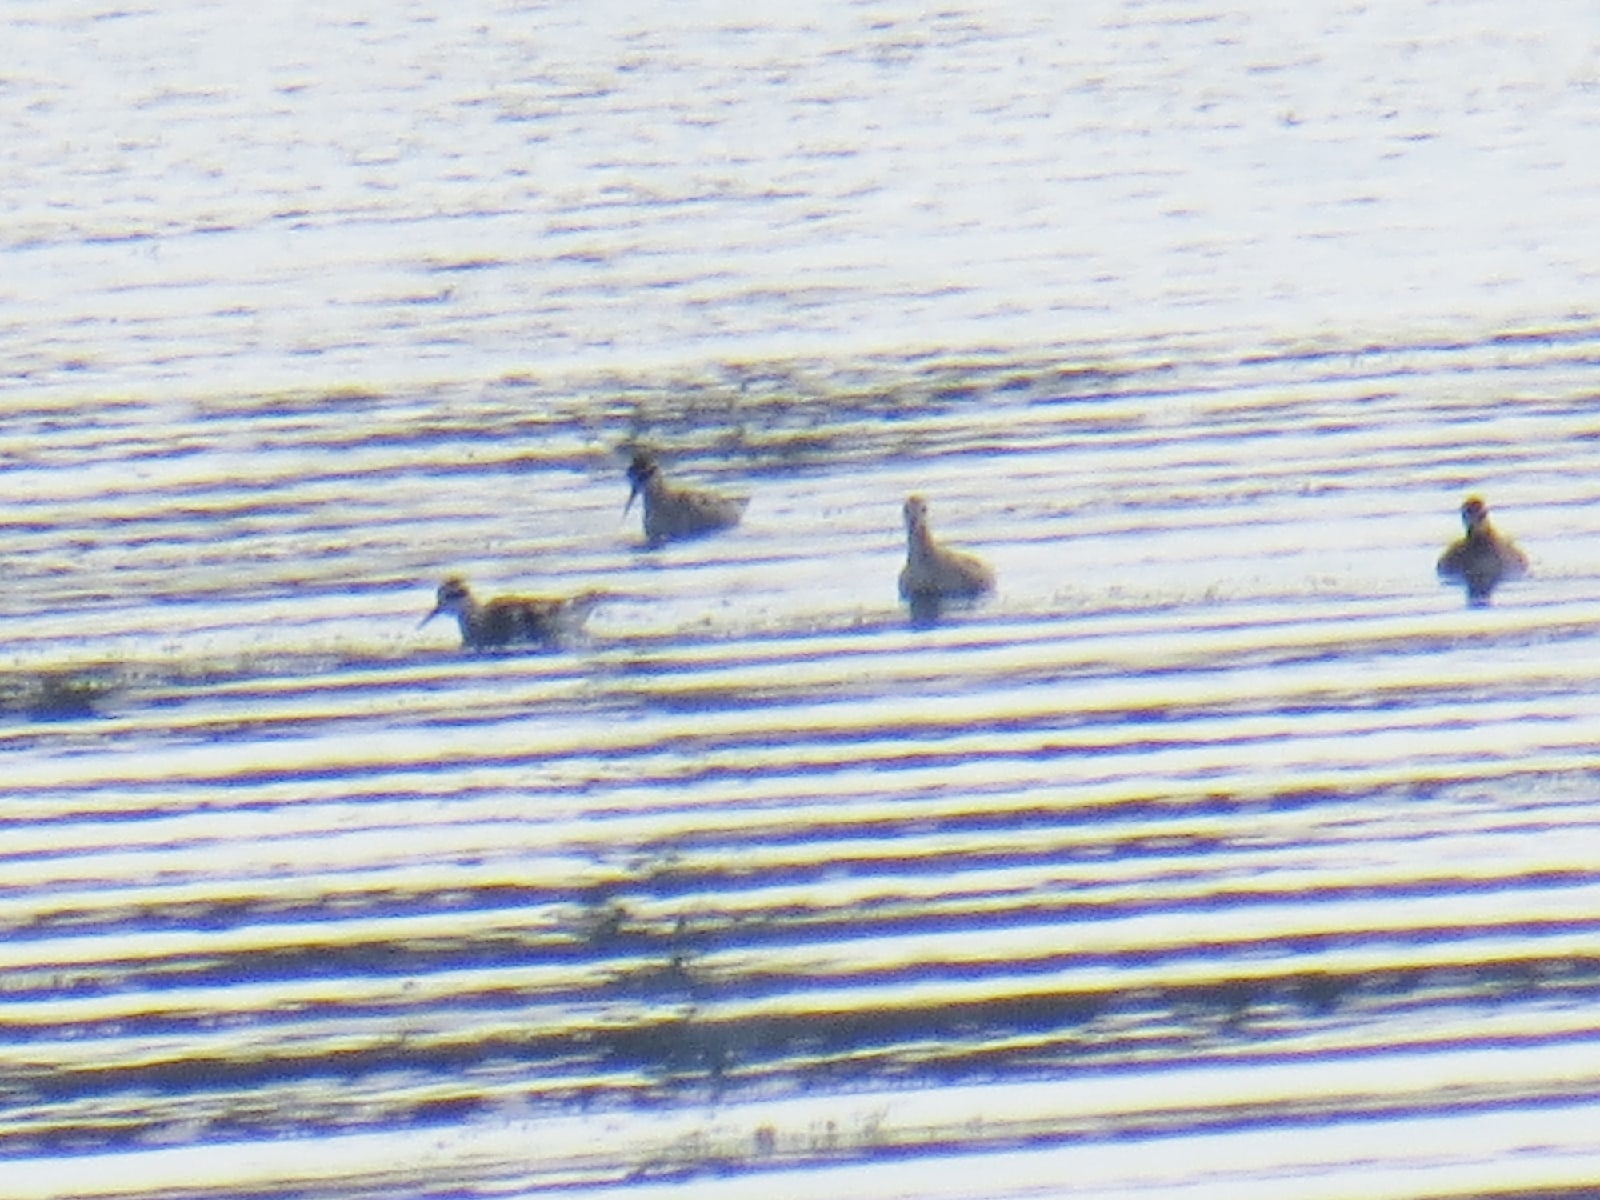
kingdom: Animalia
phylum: Chordata
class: Aves
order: Charadriiformes
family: Scolopacidae
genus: Phalaropus
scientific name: Phalaropus lobatus
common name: Red-necked phalarope
